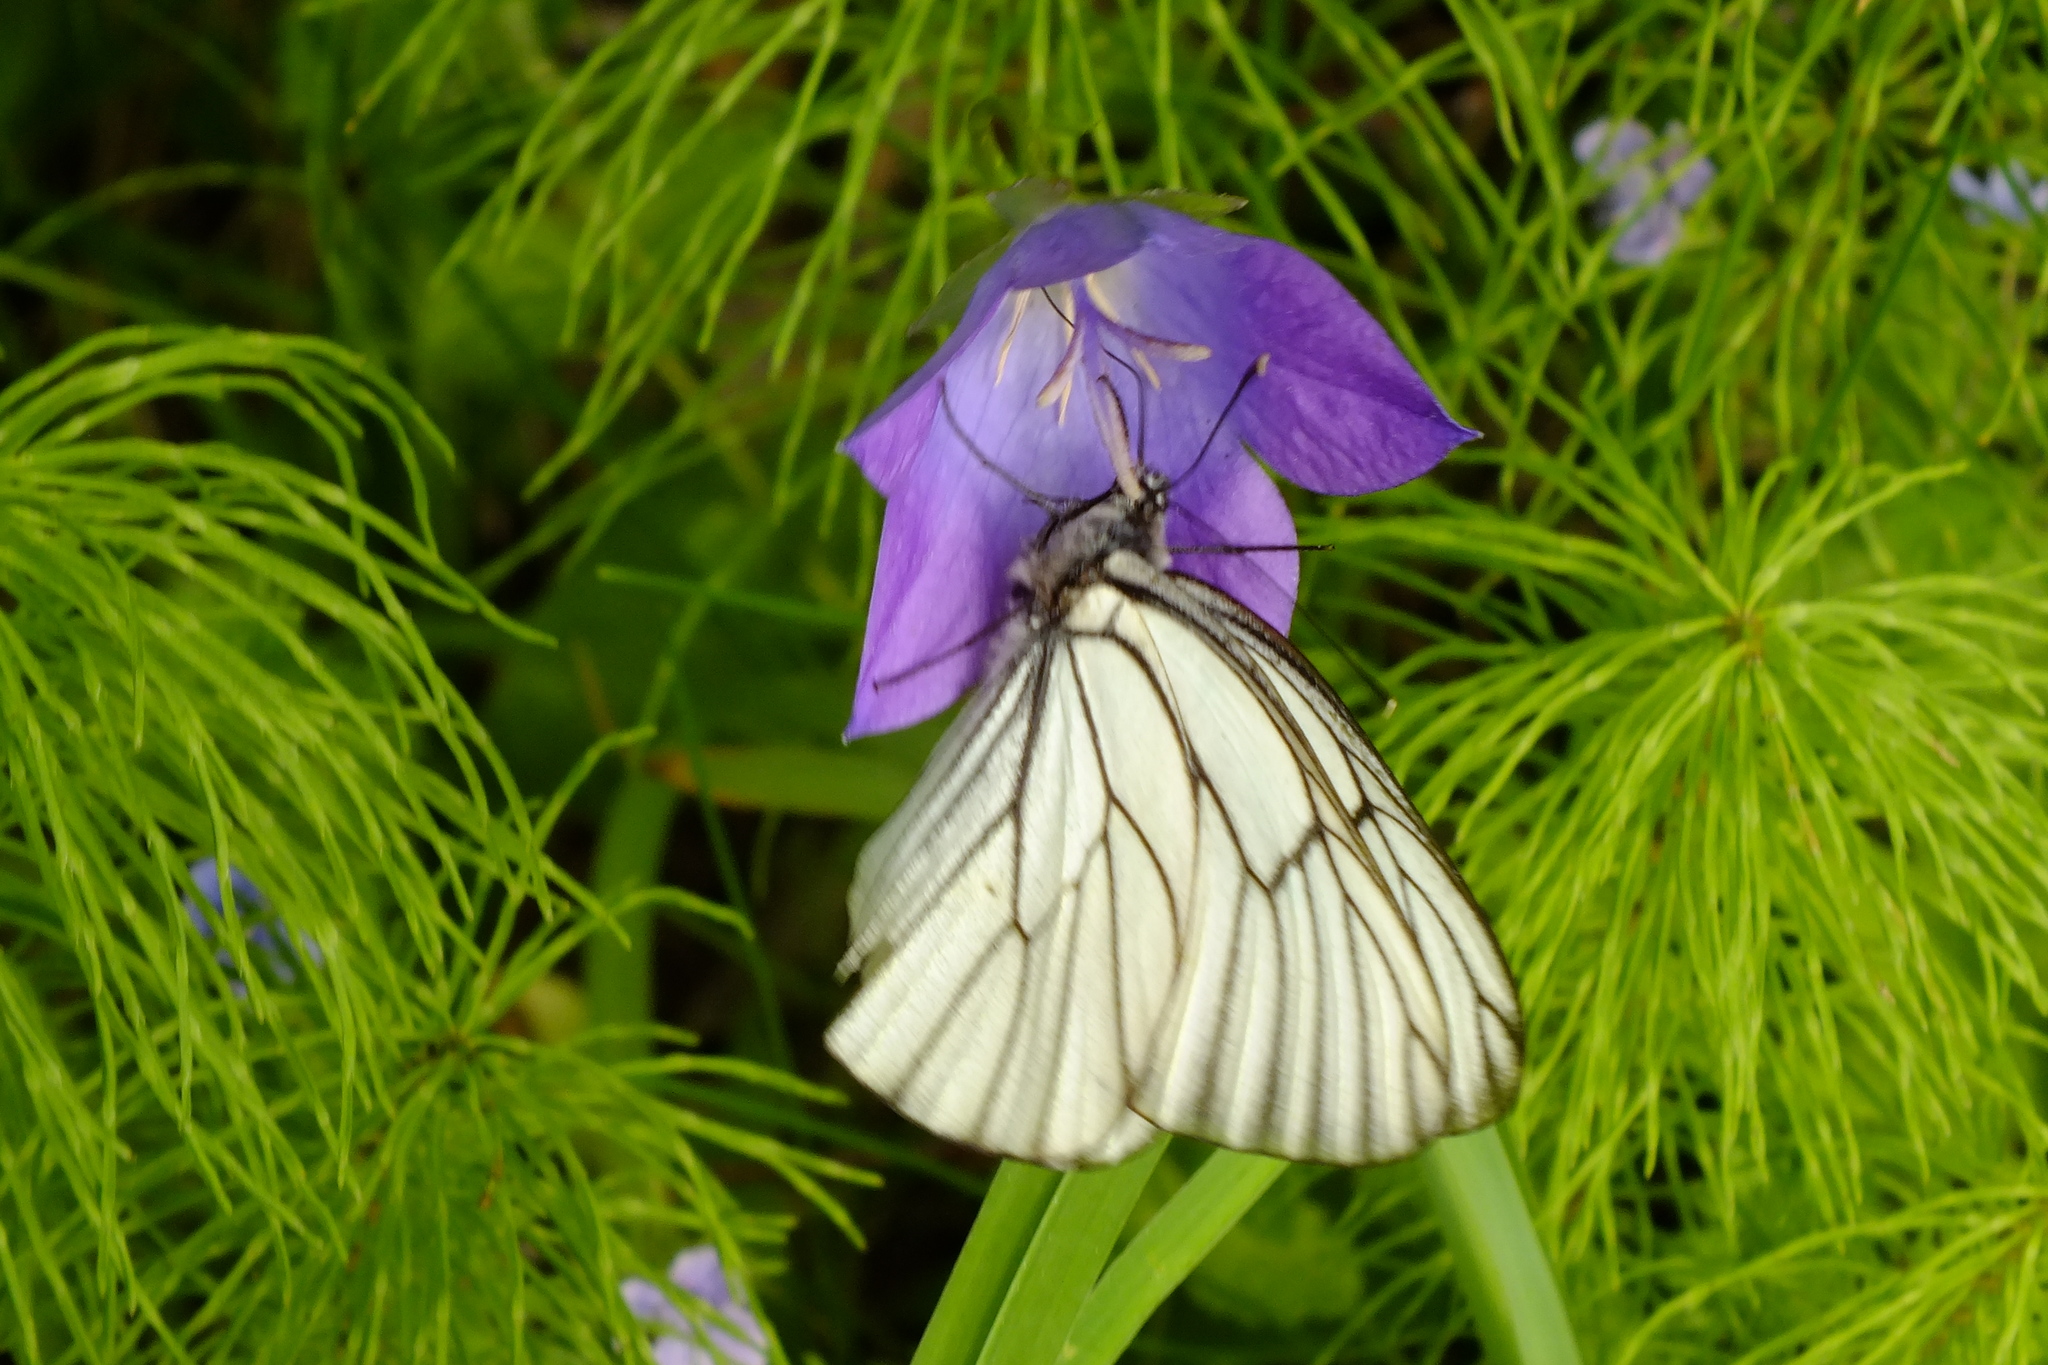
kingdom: Animalia
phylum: Arthropoda
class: Insecta
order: Lepidoptera
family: Pieridae
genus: Aporia
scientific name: Aporia crataegi
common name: Black-veined white
